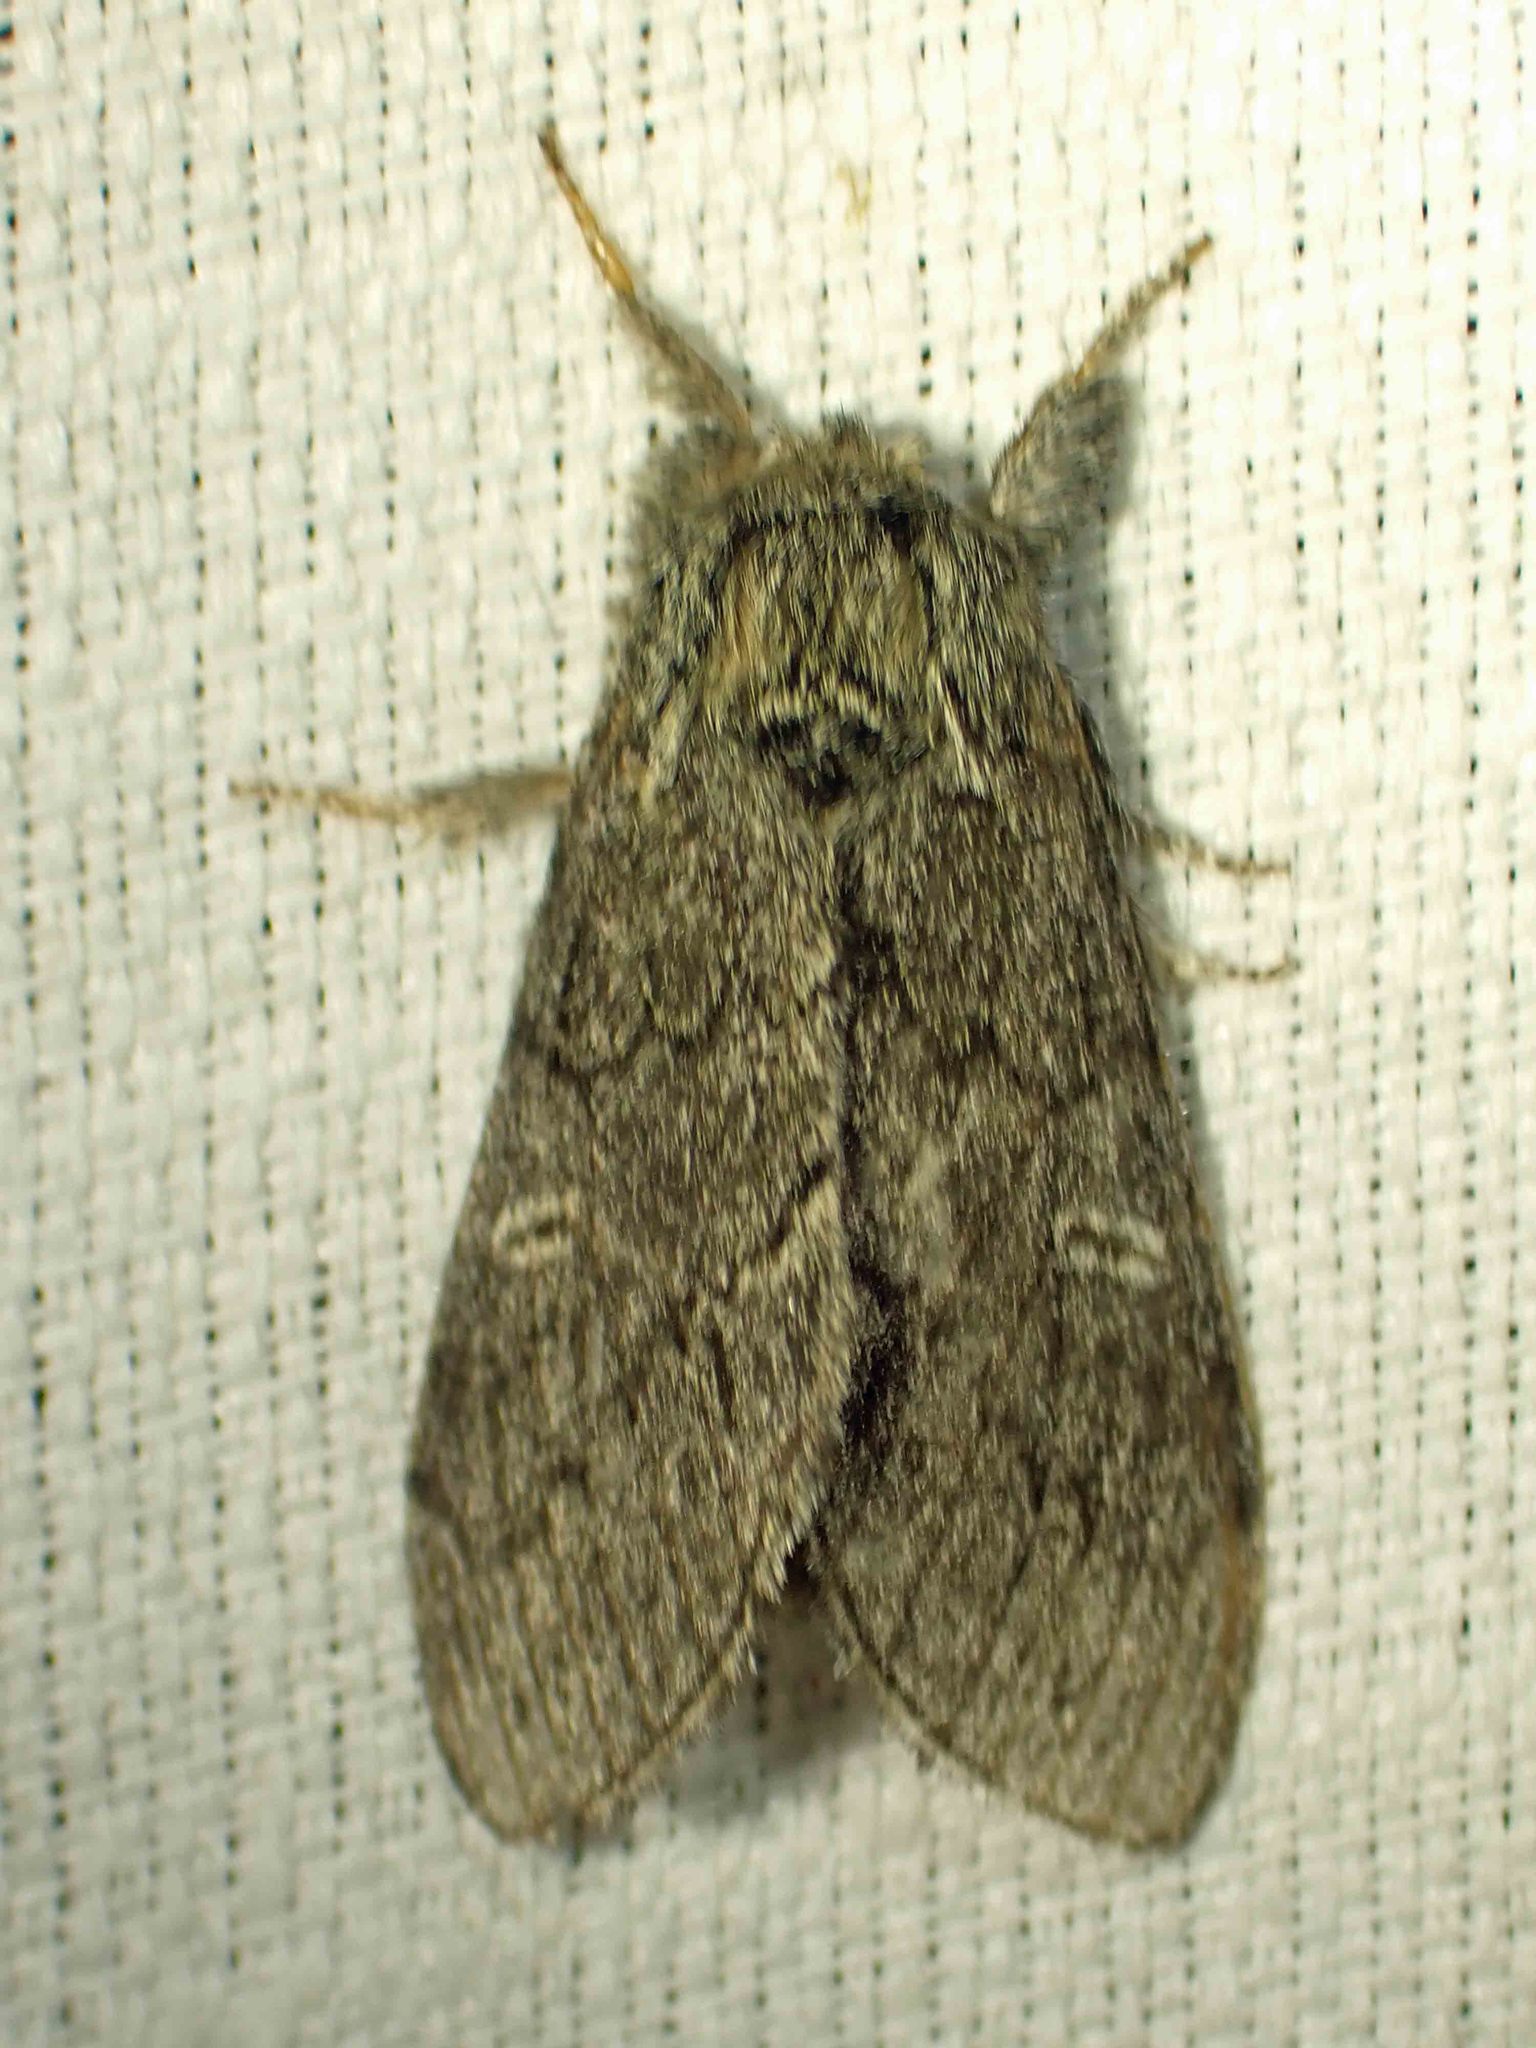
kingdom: Animalia
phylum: Arthropoda
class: Insecta
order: Lepidoptera
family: Notodontidae
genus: Notodonta
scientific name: Notodonta torva
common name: Large dark prominent
